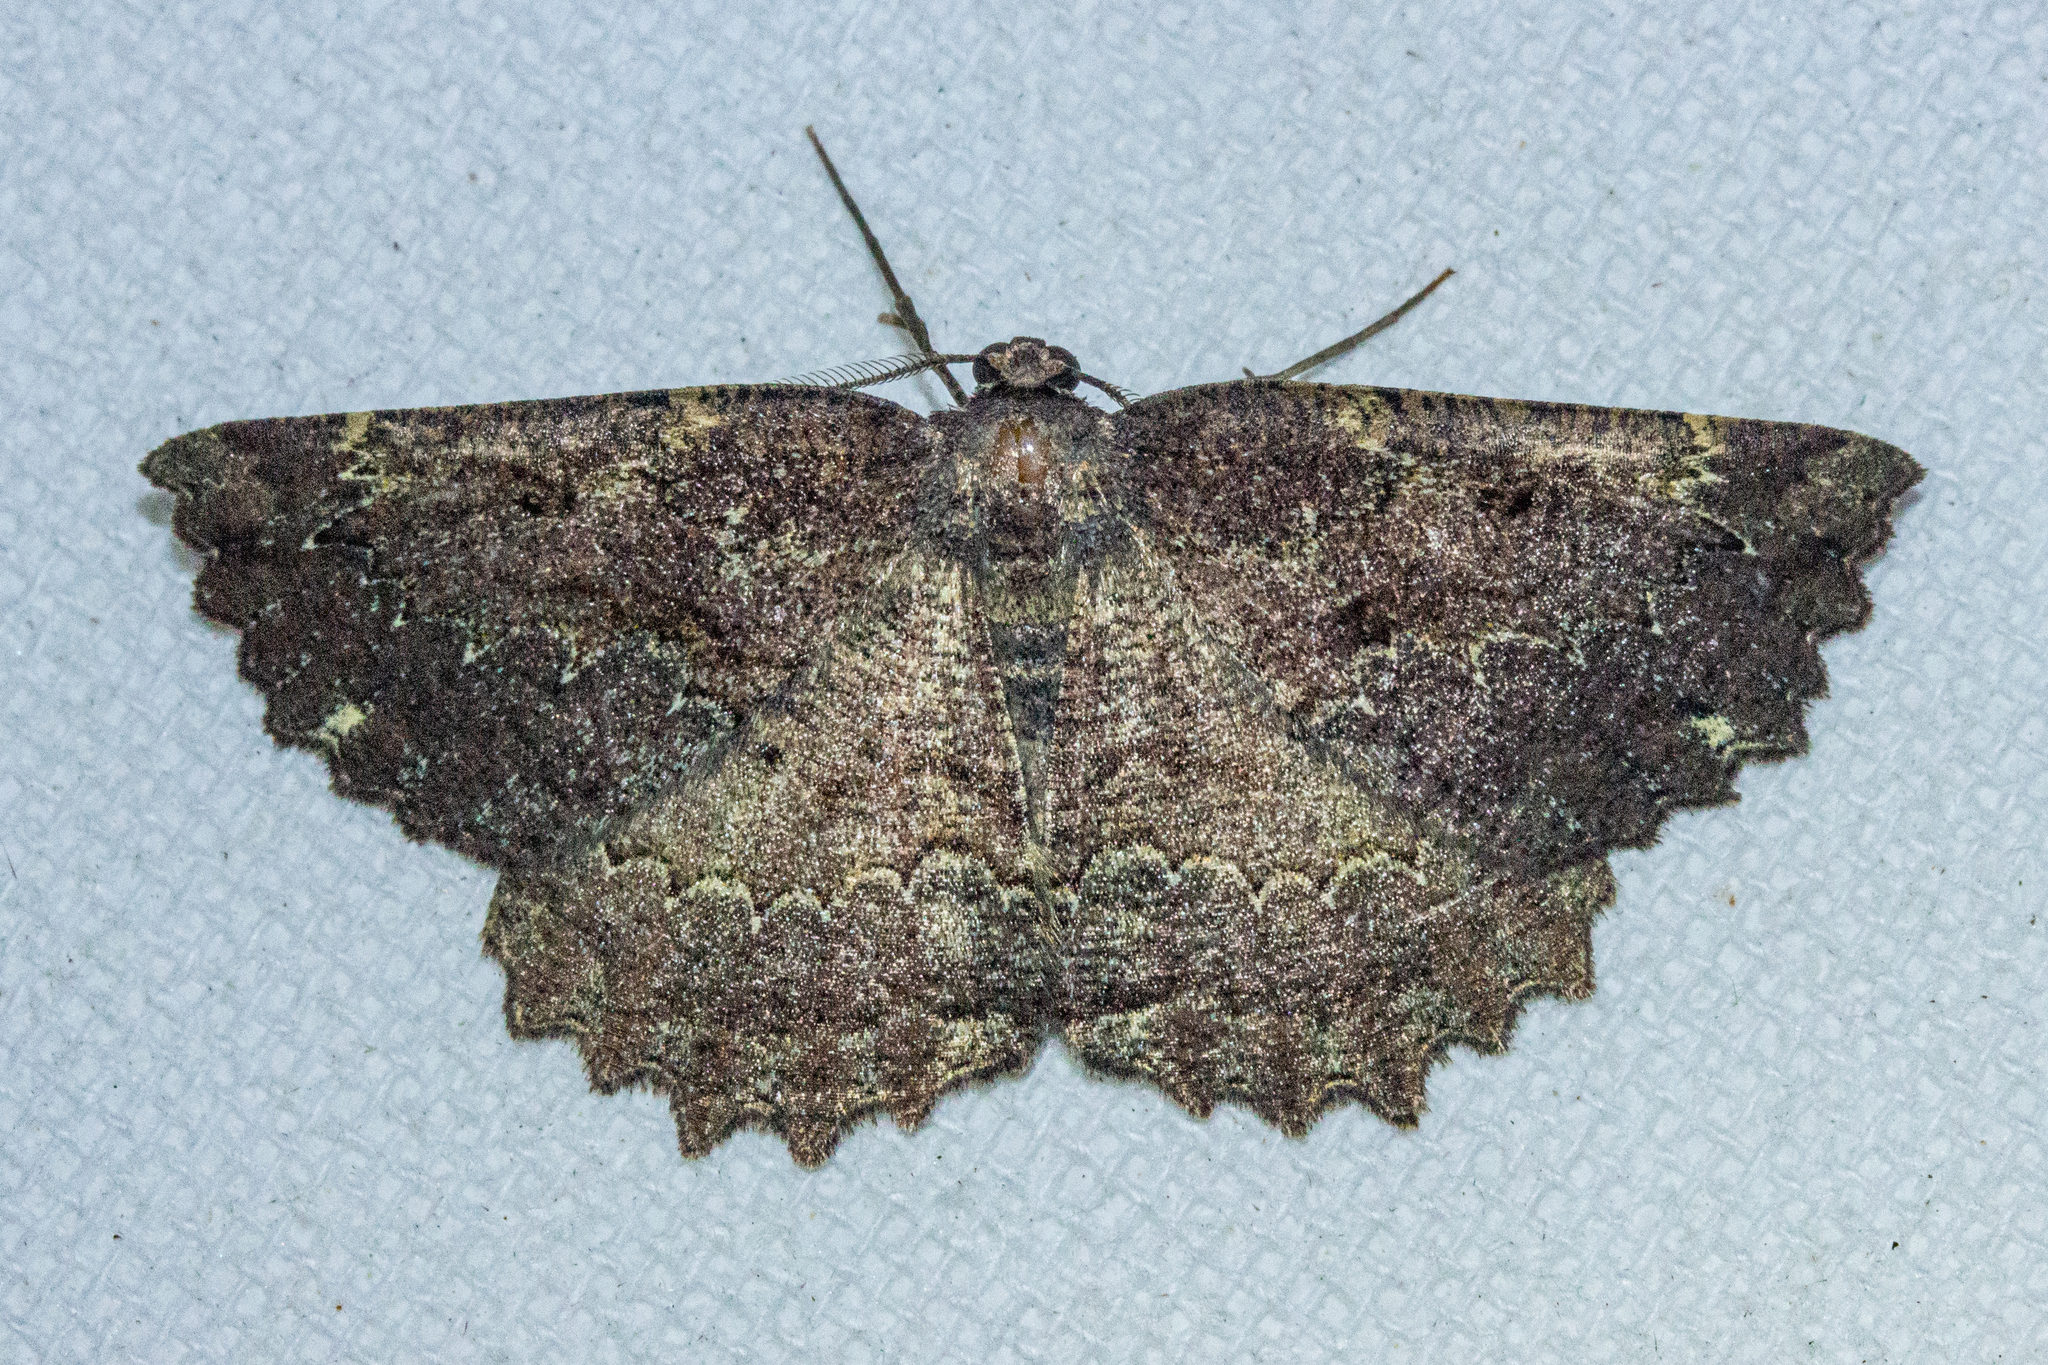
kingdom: Animalia
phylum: Arthropoda
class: Insecta
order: Lepidoptera
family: Geometridae
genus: Gellonia
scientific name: Gellonia pannularia
